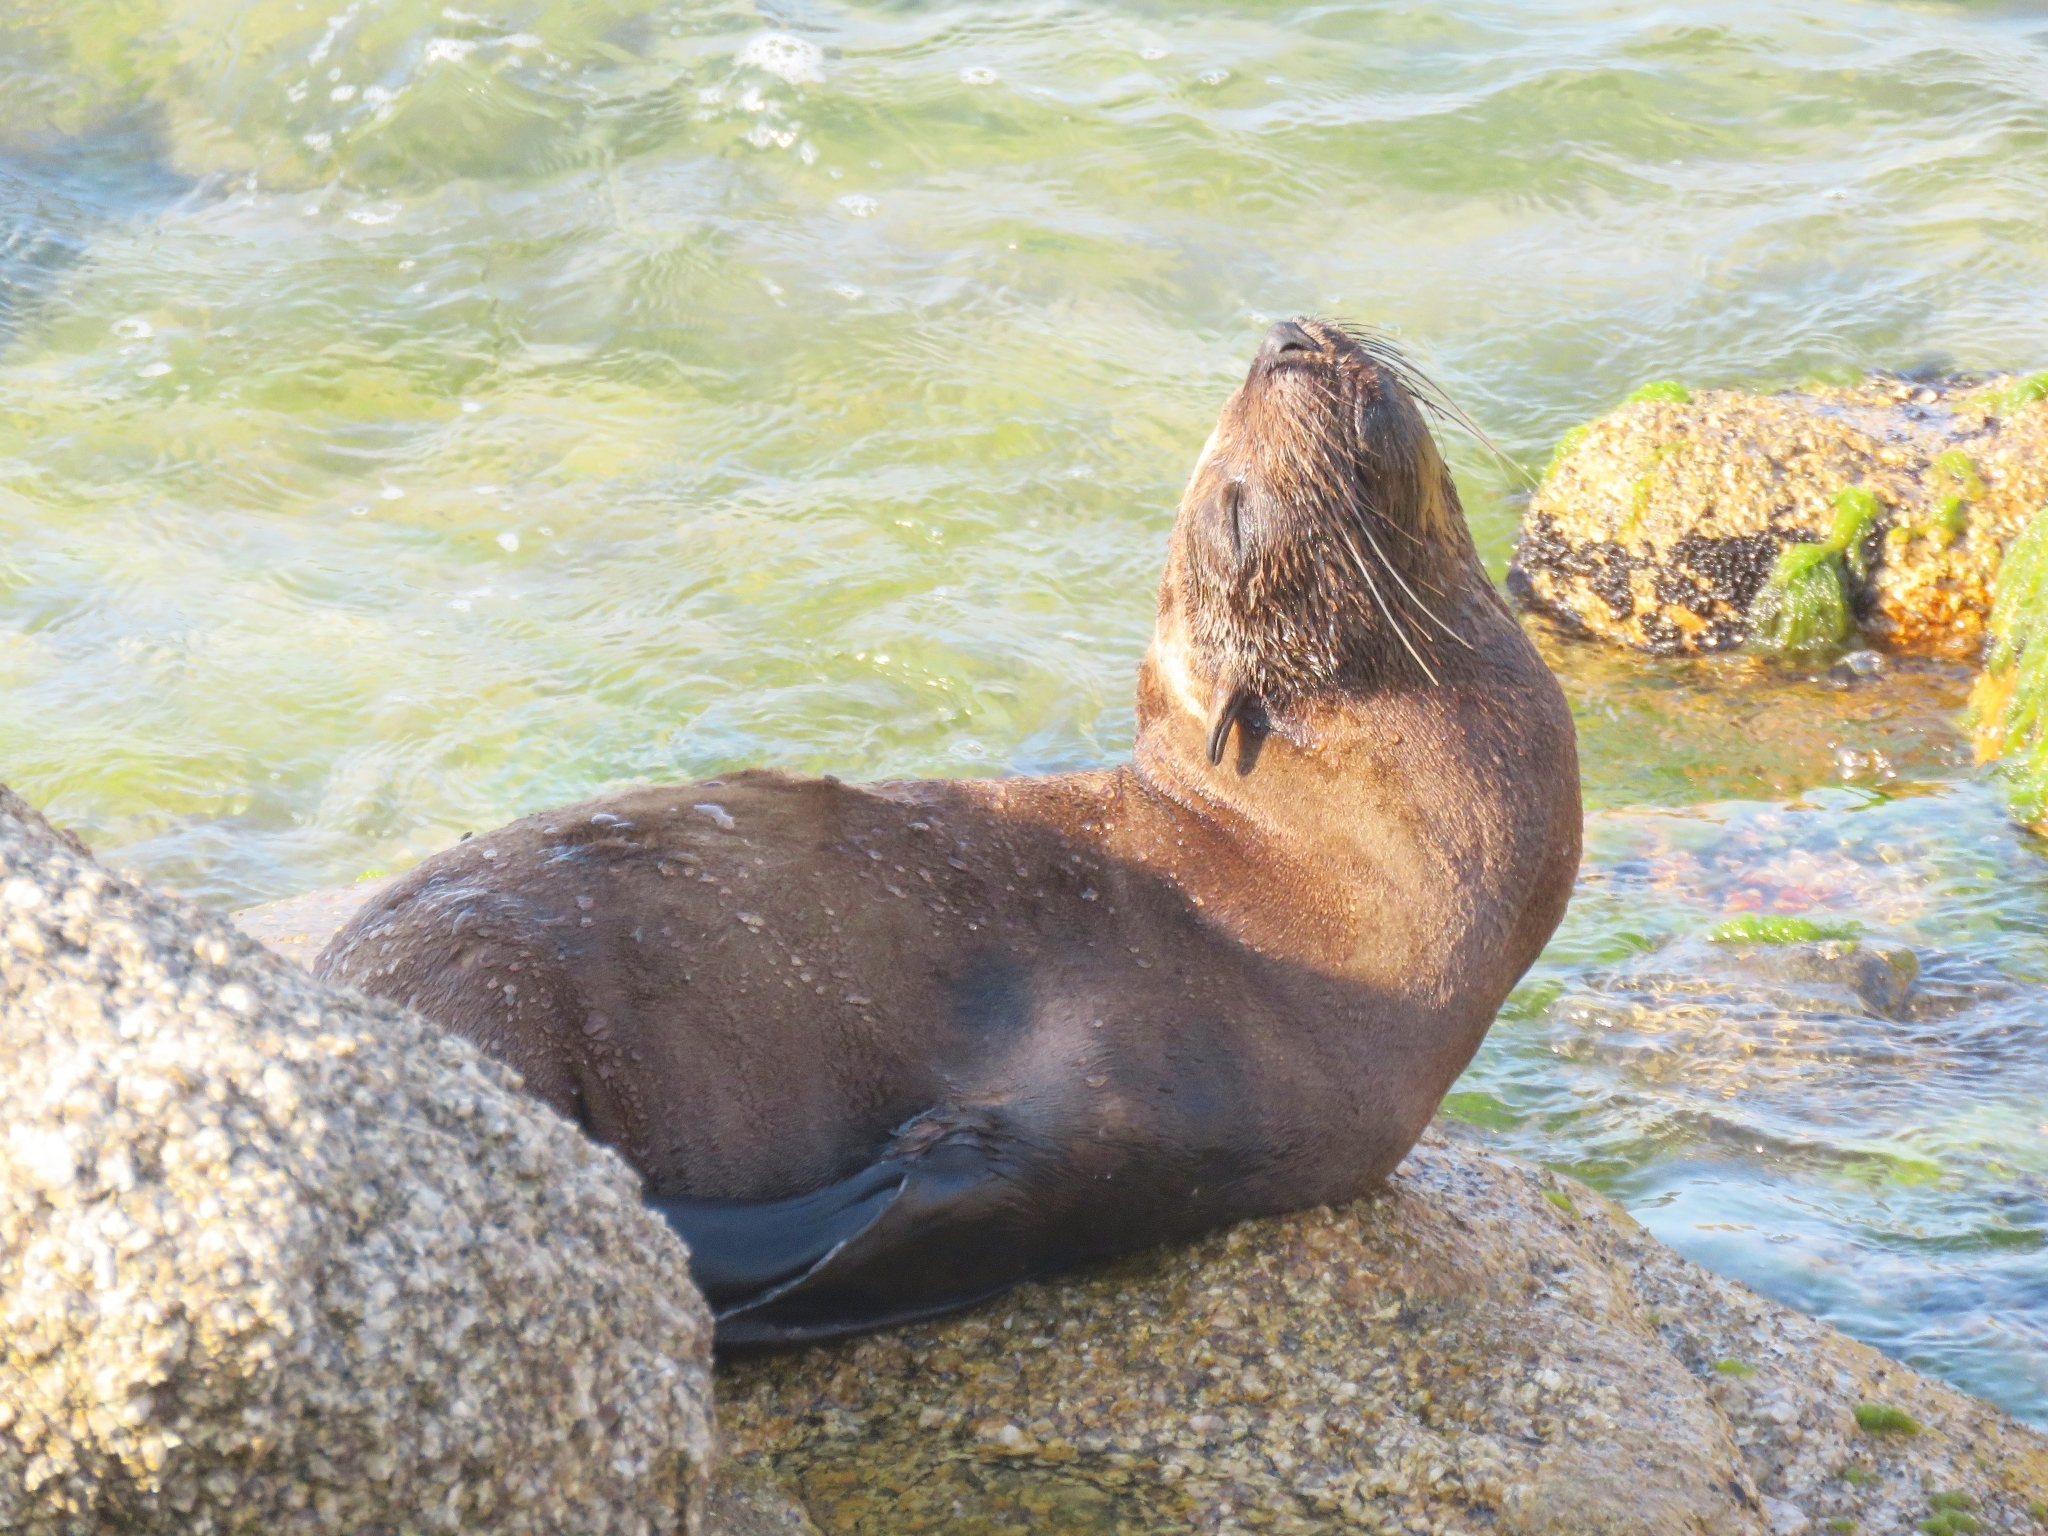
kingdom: Animalia
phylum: Chordata
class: Mammalia
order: Carnivora
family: Otariidae
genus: Arctocephalus
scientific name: Arctocephalus australis
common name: South american fur seal
